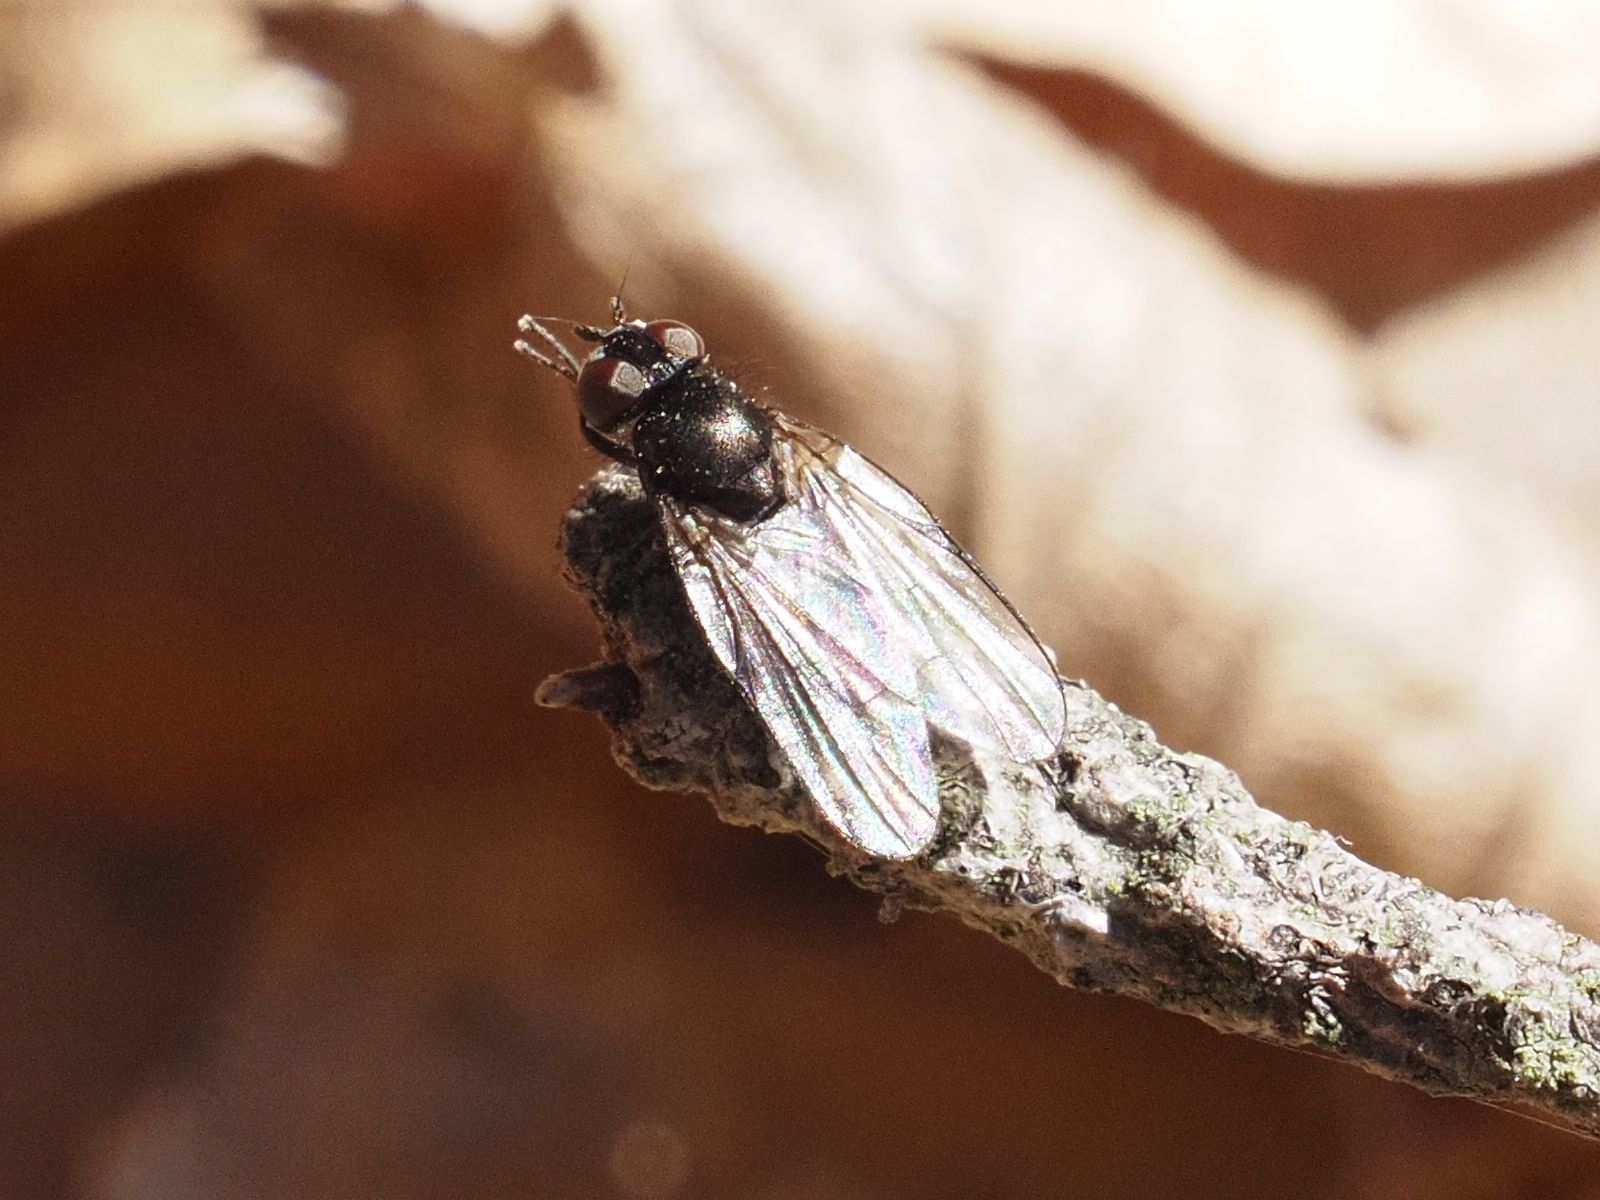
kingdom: Animalia
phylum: Arthropoda
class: Insecta
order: Diptera
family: Lonchaeidae
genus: Earomyia
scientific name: Earomyia lonchaeoides
